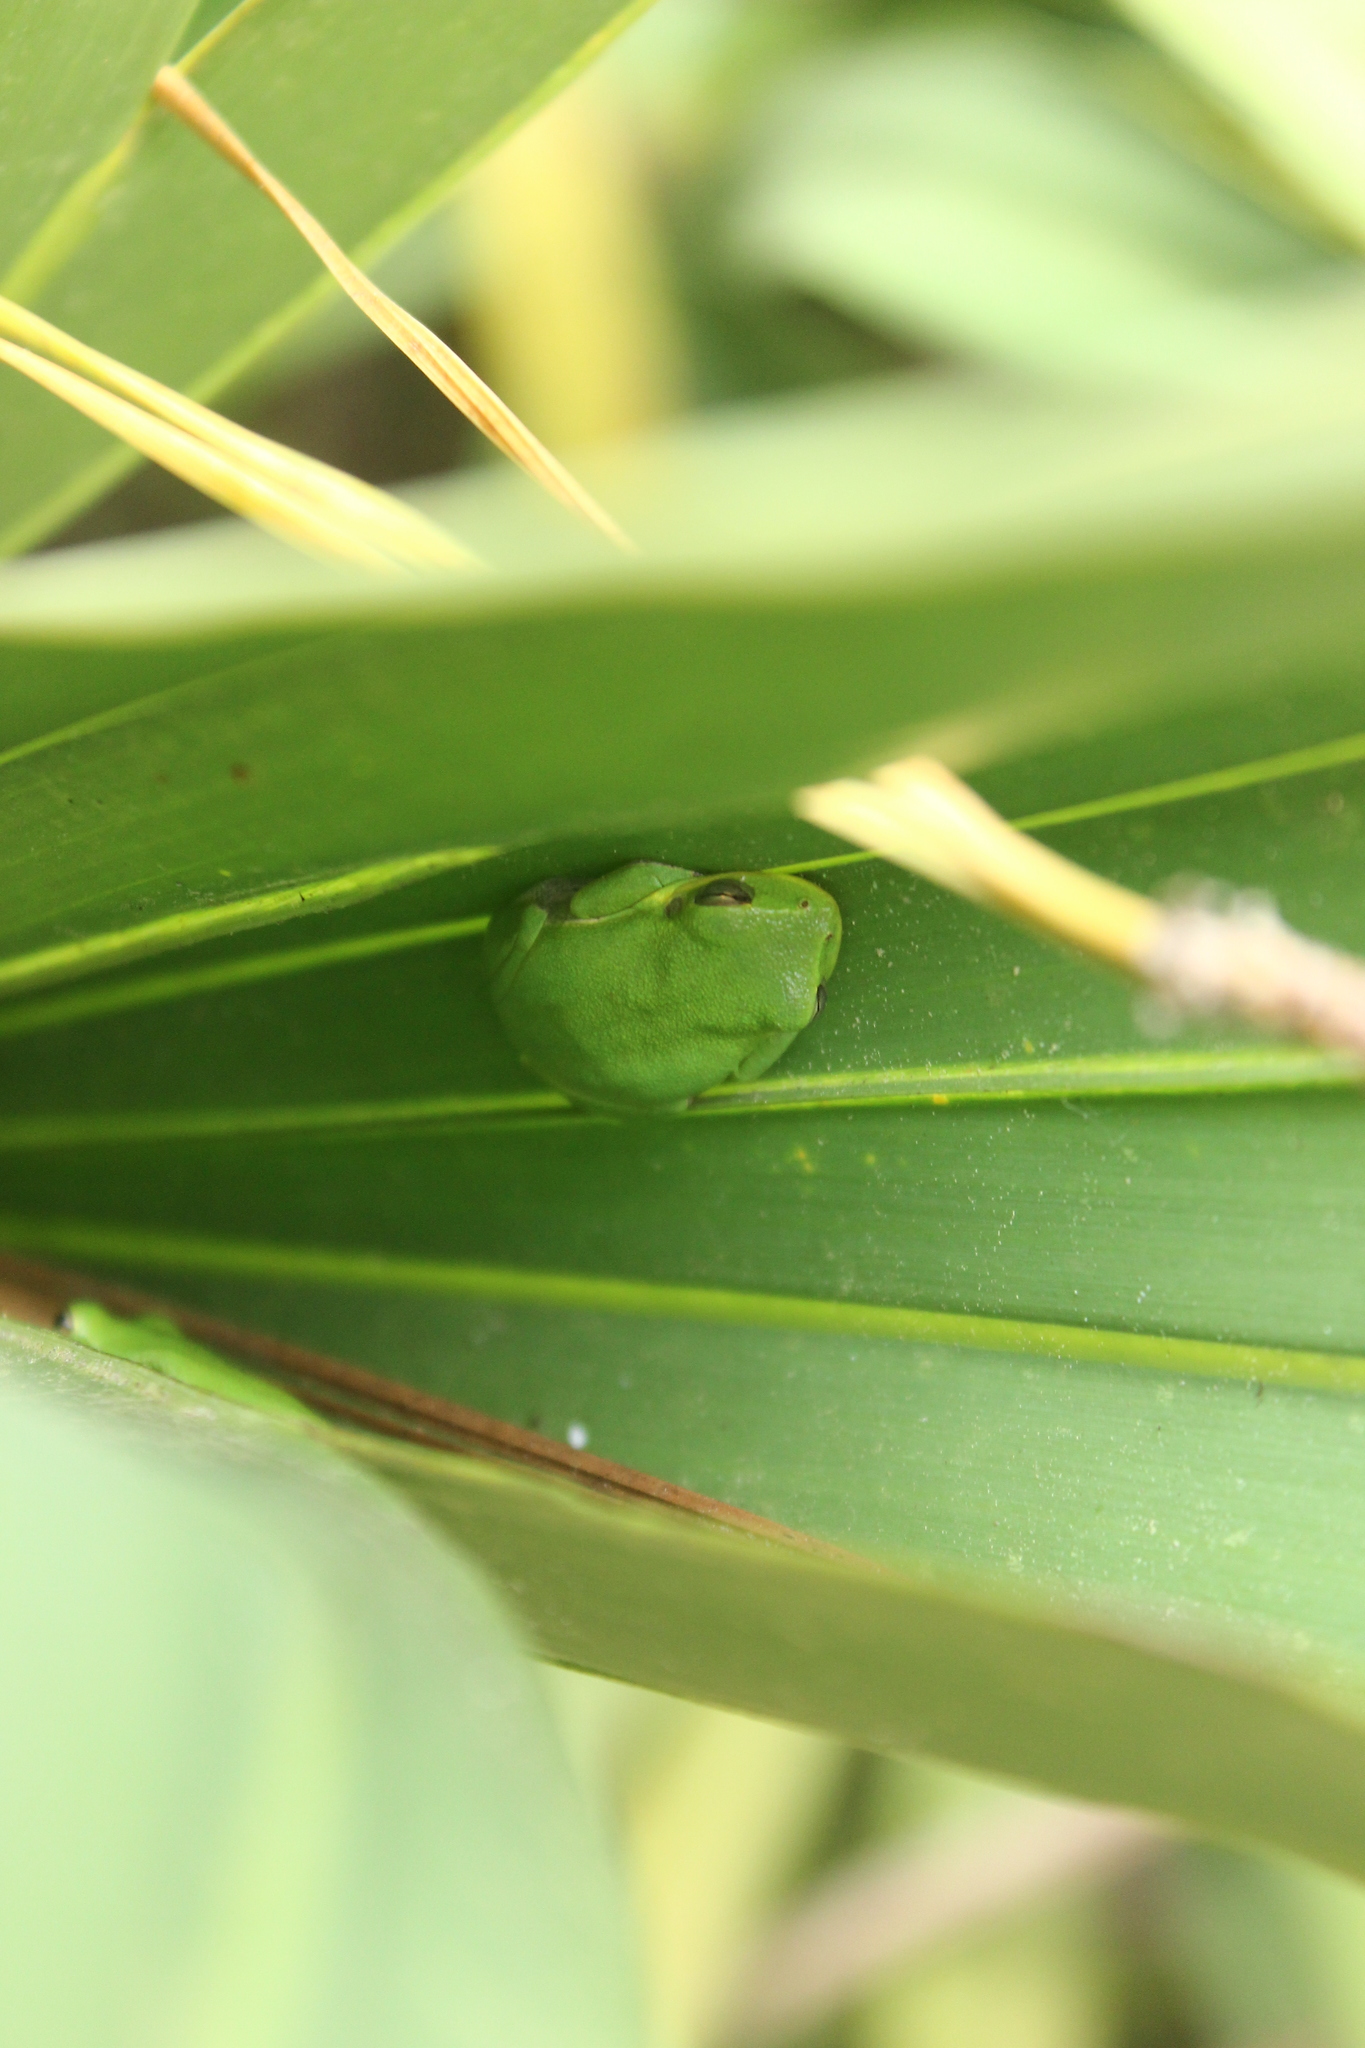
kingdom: Animalia
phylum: Chordata
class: Amphibia
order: Anura
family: Hylidae
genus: Dryophytes
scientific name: Dryophytes squirellus
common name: Squirrel treefrog
